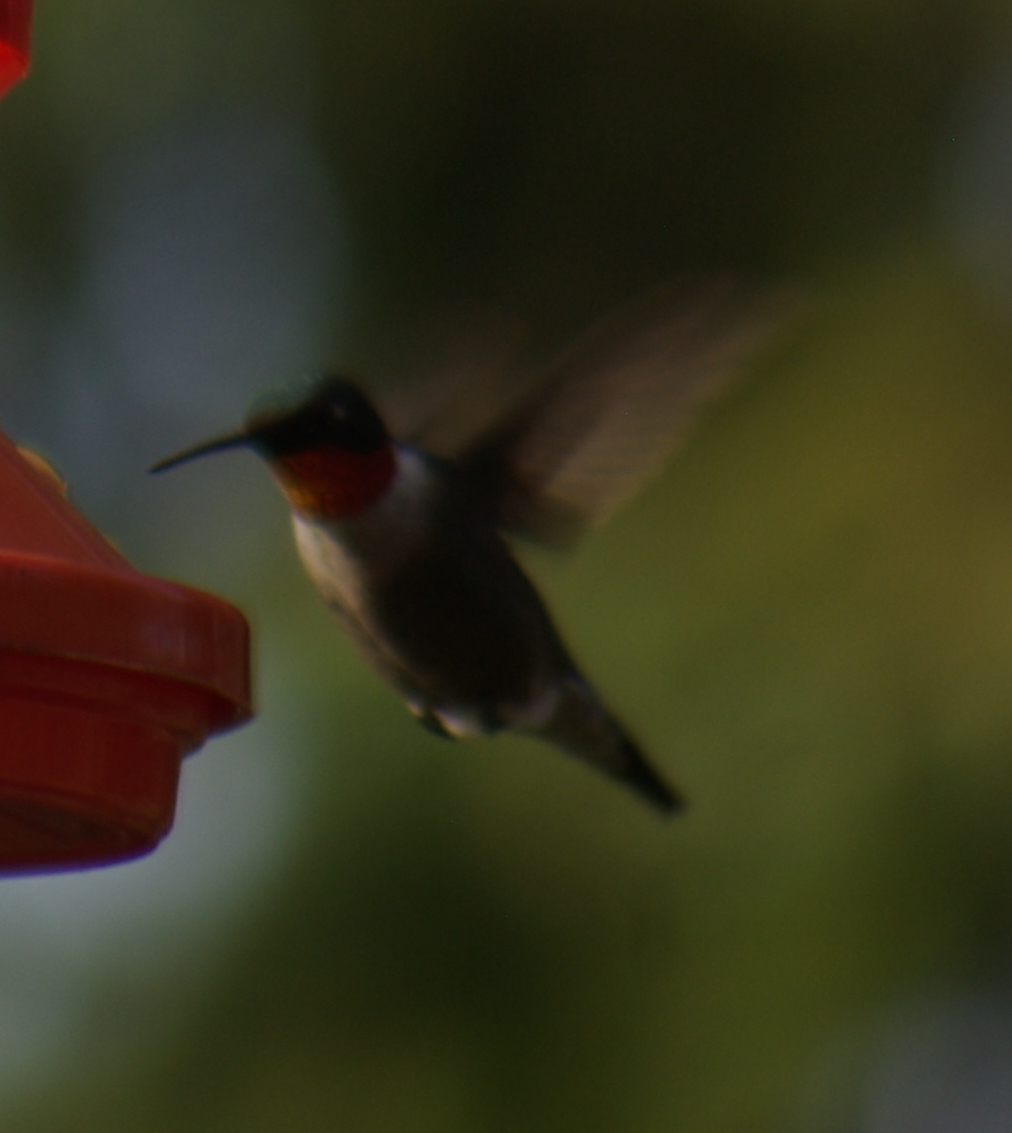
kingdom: Animalia
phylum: Chordata
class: Aves
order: Apodiformes
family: Trochilidae
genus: Archilochus
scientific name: Archilochus colubris
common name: Ruby-throated hummingbird
